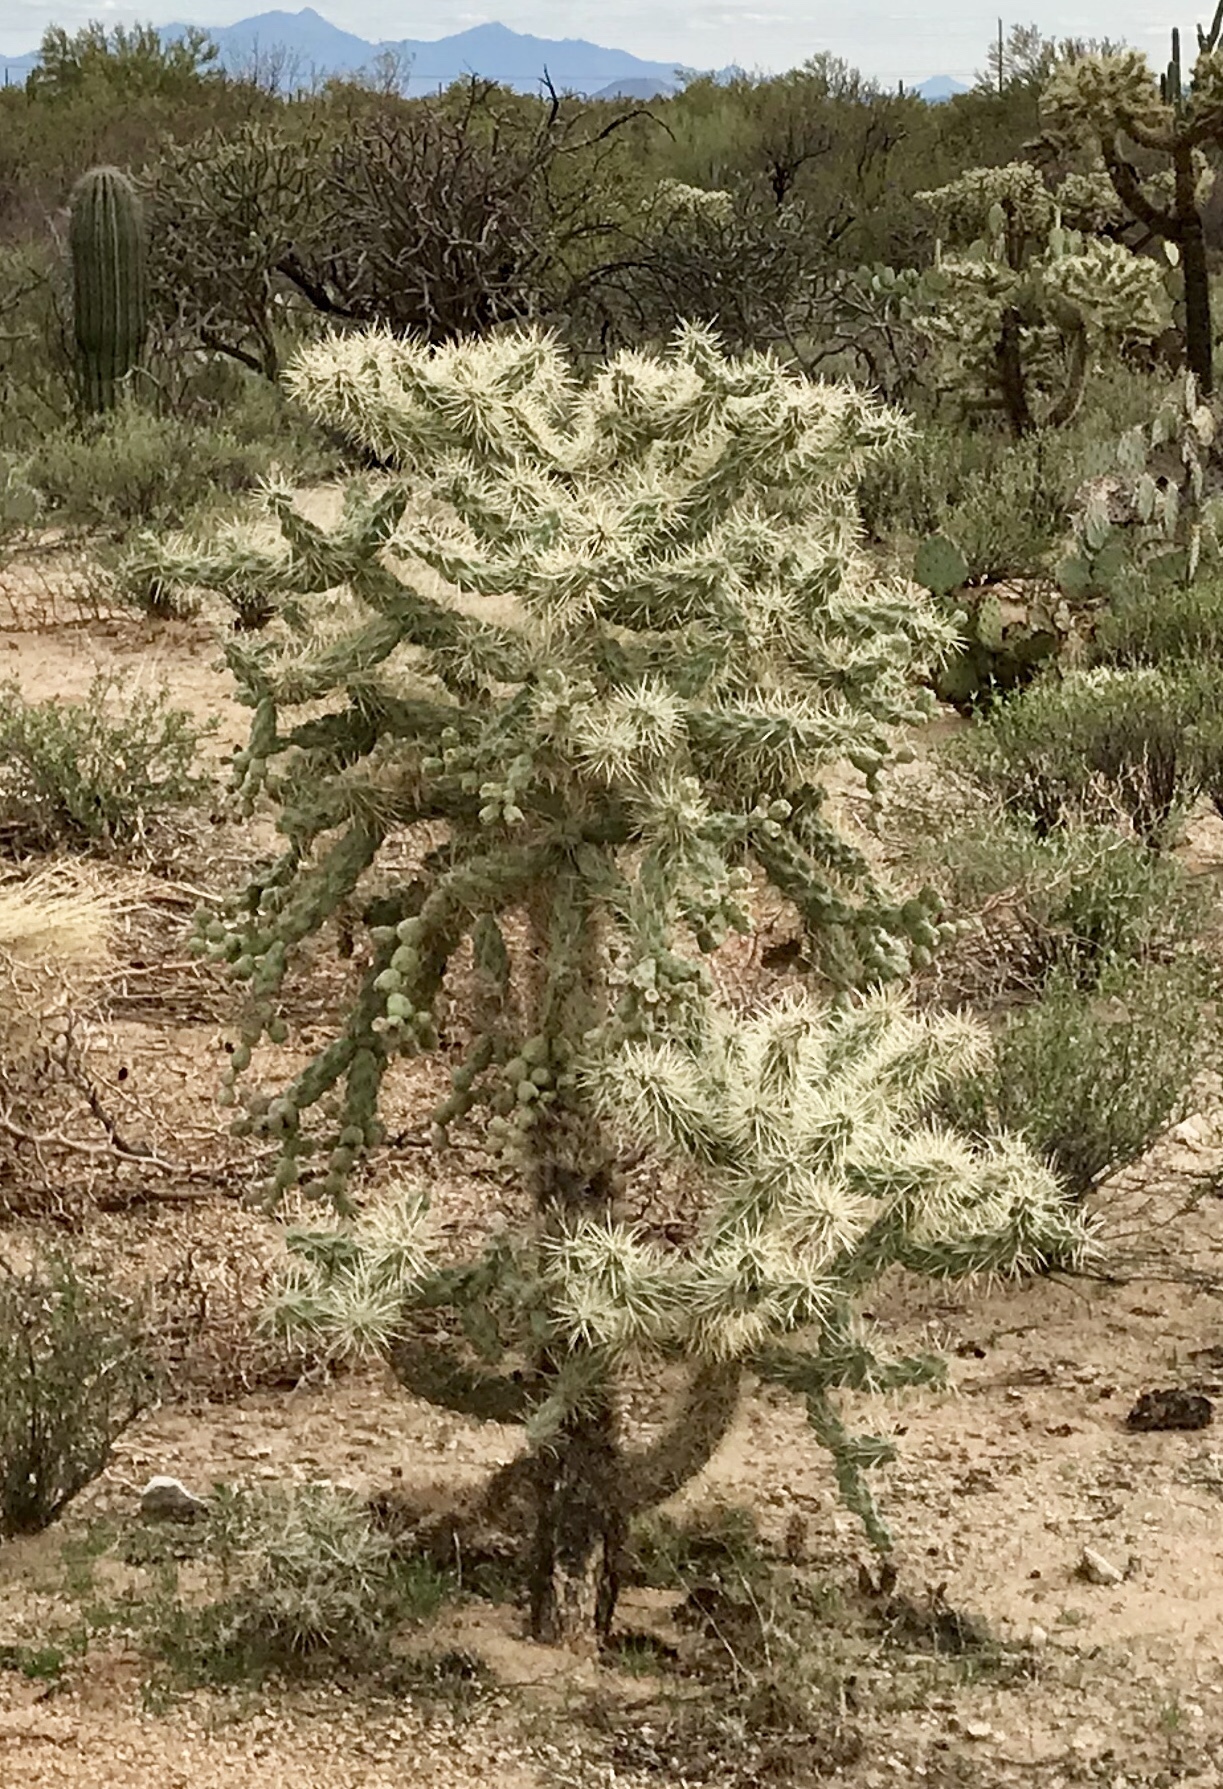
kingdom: Plantae
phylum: Tracheophyta
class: Magnoliopsida
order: Caryophyllales
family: Cactaceae
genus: Cylindropuntia
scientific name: Cylindropuntia fulgida
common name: Jumping cholla
